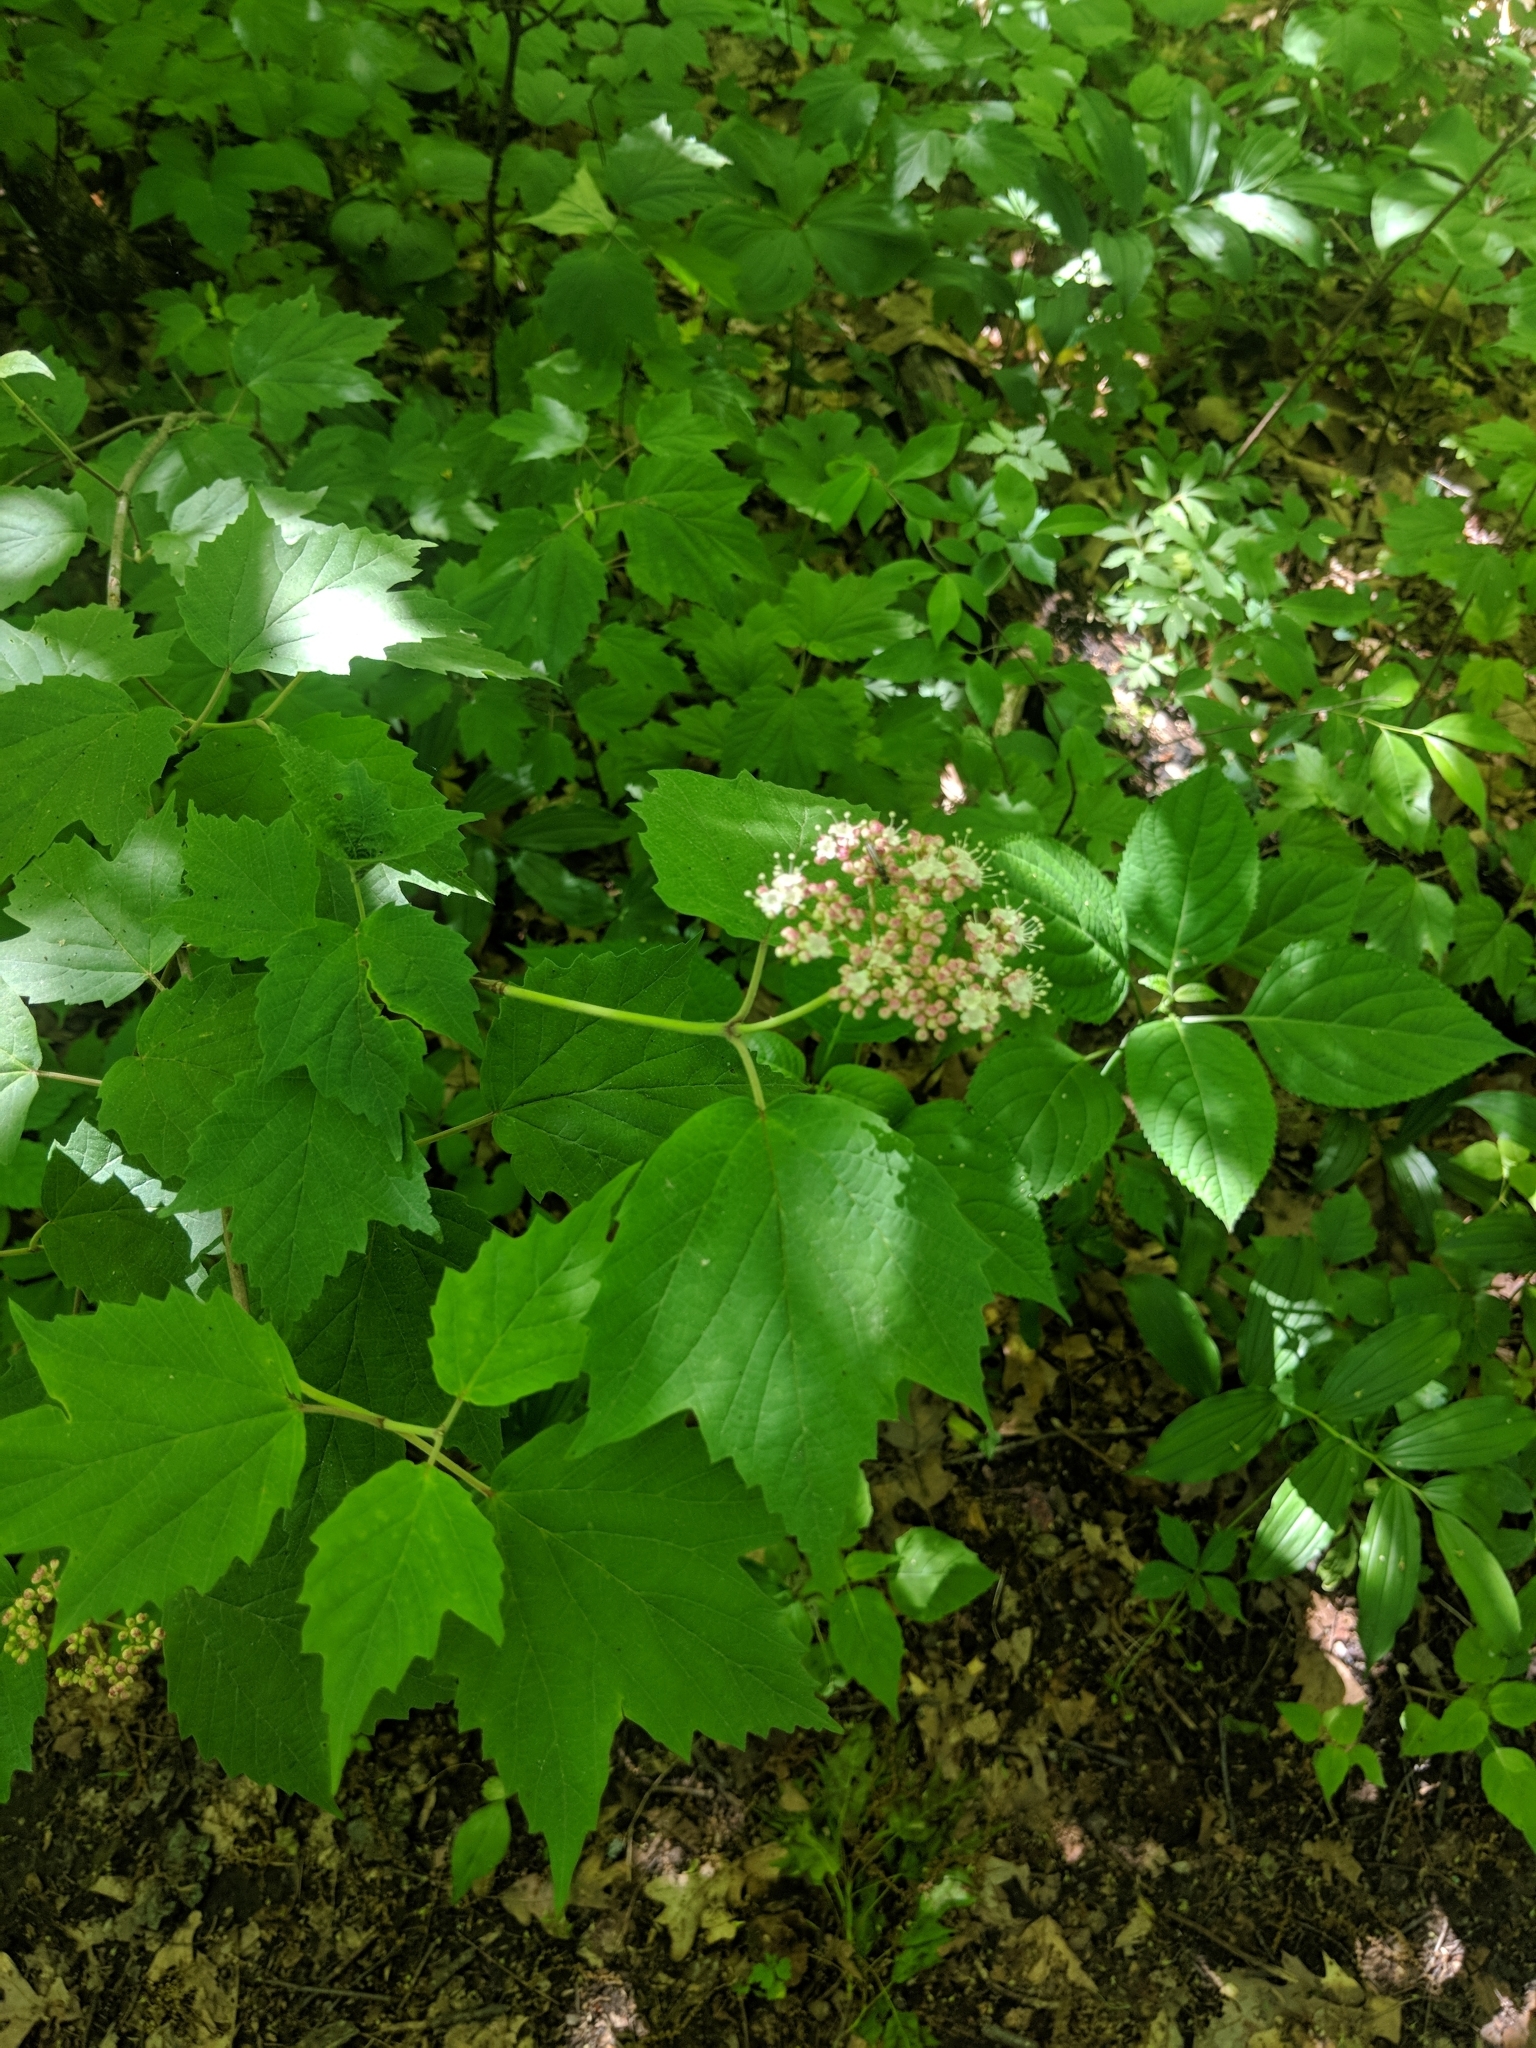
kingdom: Plantae
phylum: Tracheophyta
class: Magnoliopsida
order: Dipsacales
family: Viburnaceae
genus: Viburnum
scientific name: Viburnum acerifolium
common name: Dockmackie
